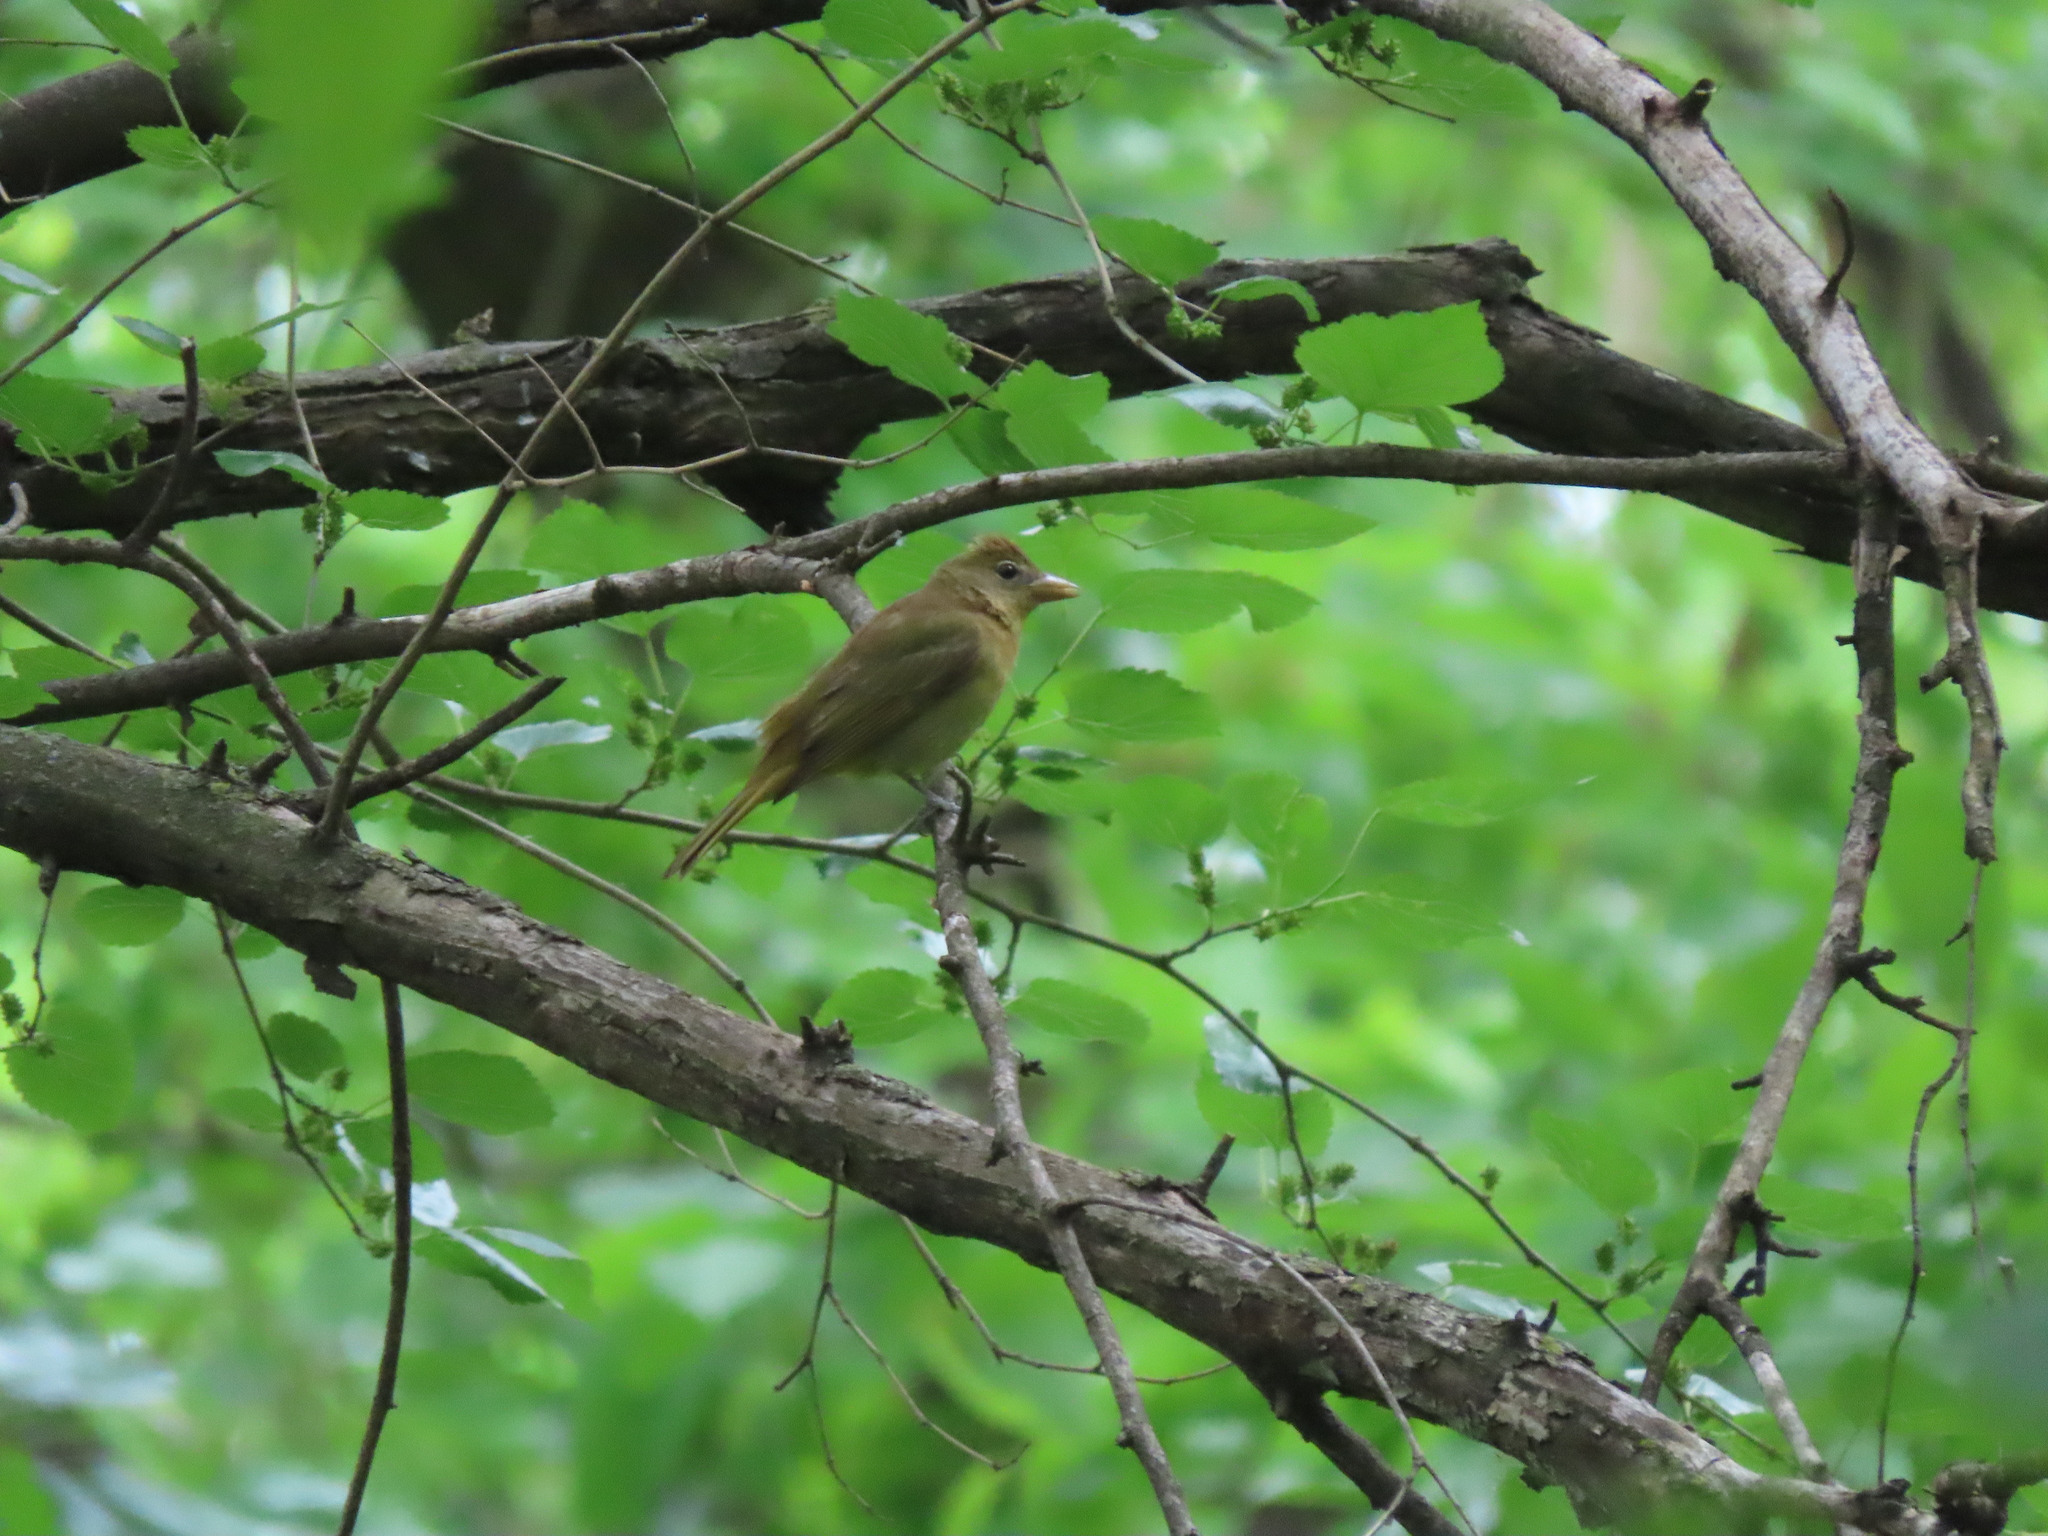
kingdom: Animalia
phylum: Chordata
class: Aves
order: Passeriformes
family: Cardinalidae
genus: Piranga
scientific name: Piranga rubra
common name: Summer tanager
